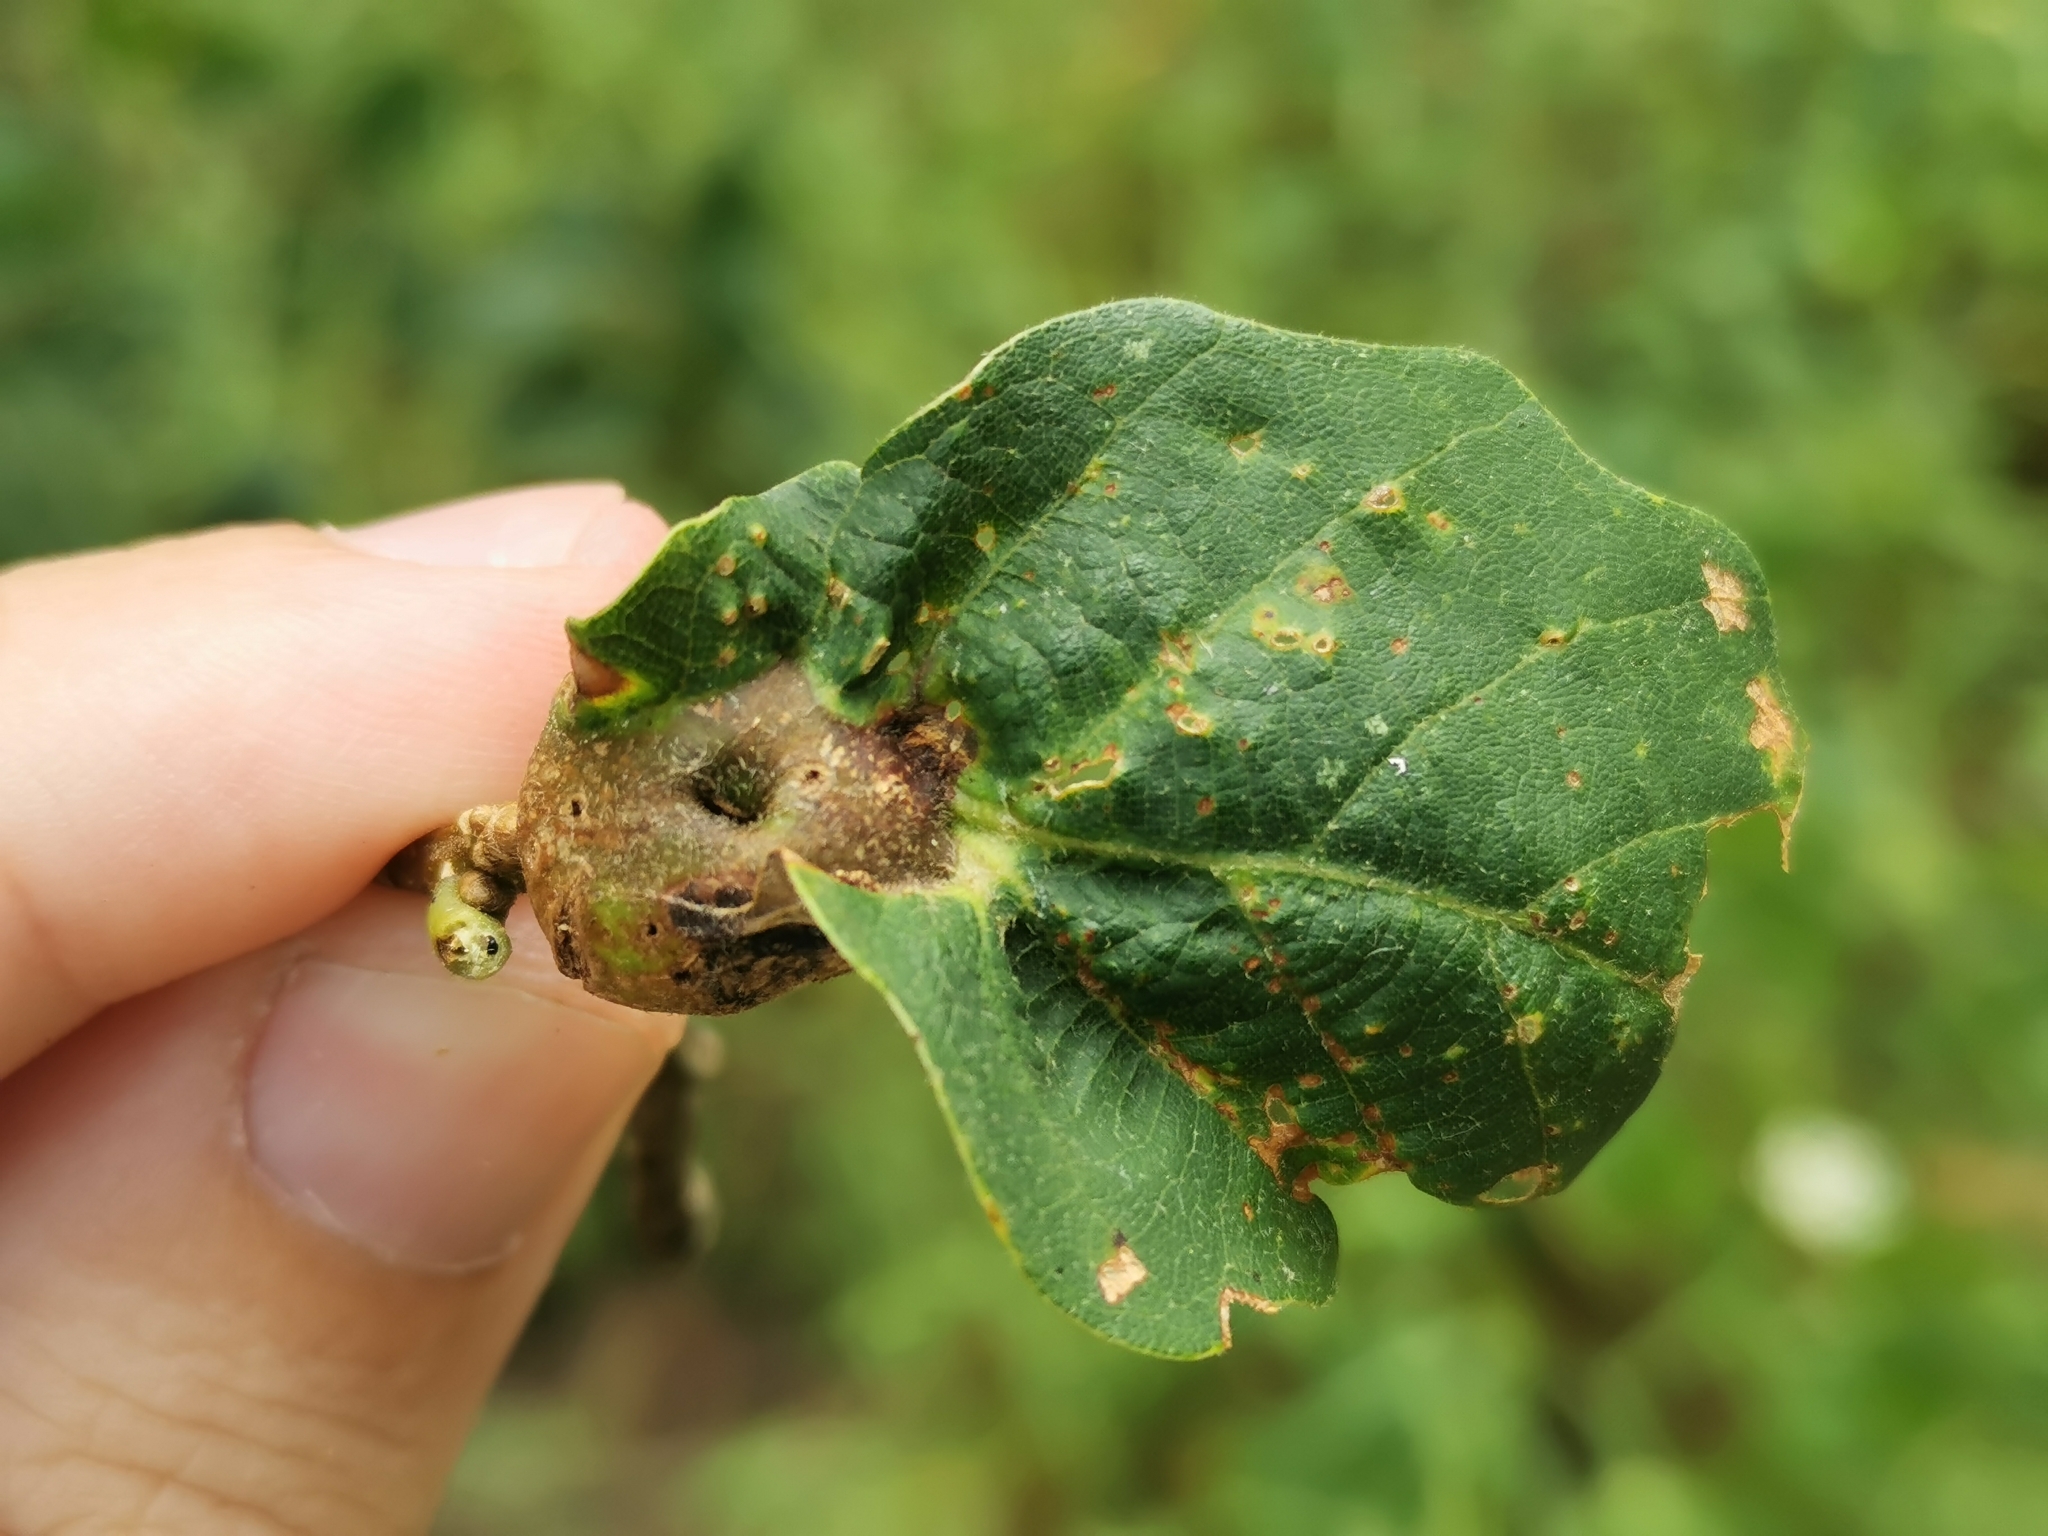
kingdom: Animalia
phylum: Arthropoda
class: Insecta
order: Hymenoptera
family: Cynipidae
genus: Andricus
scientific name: Andricus
